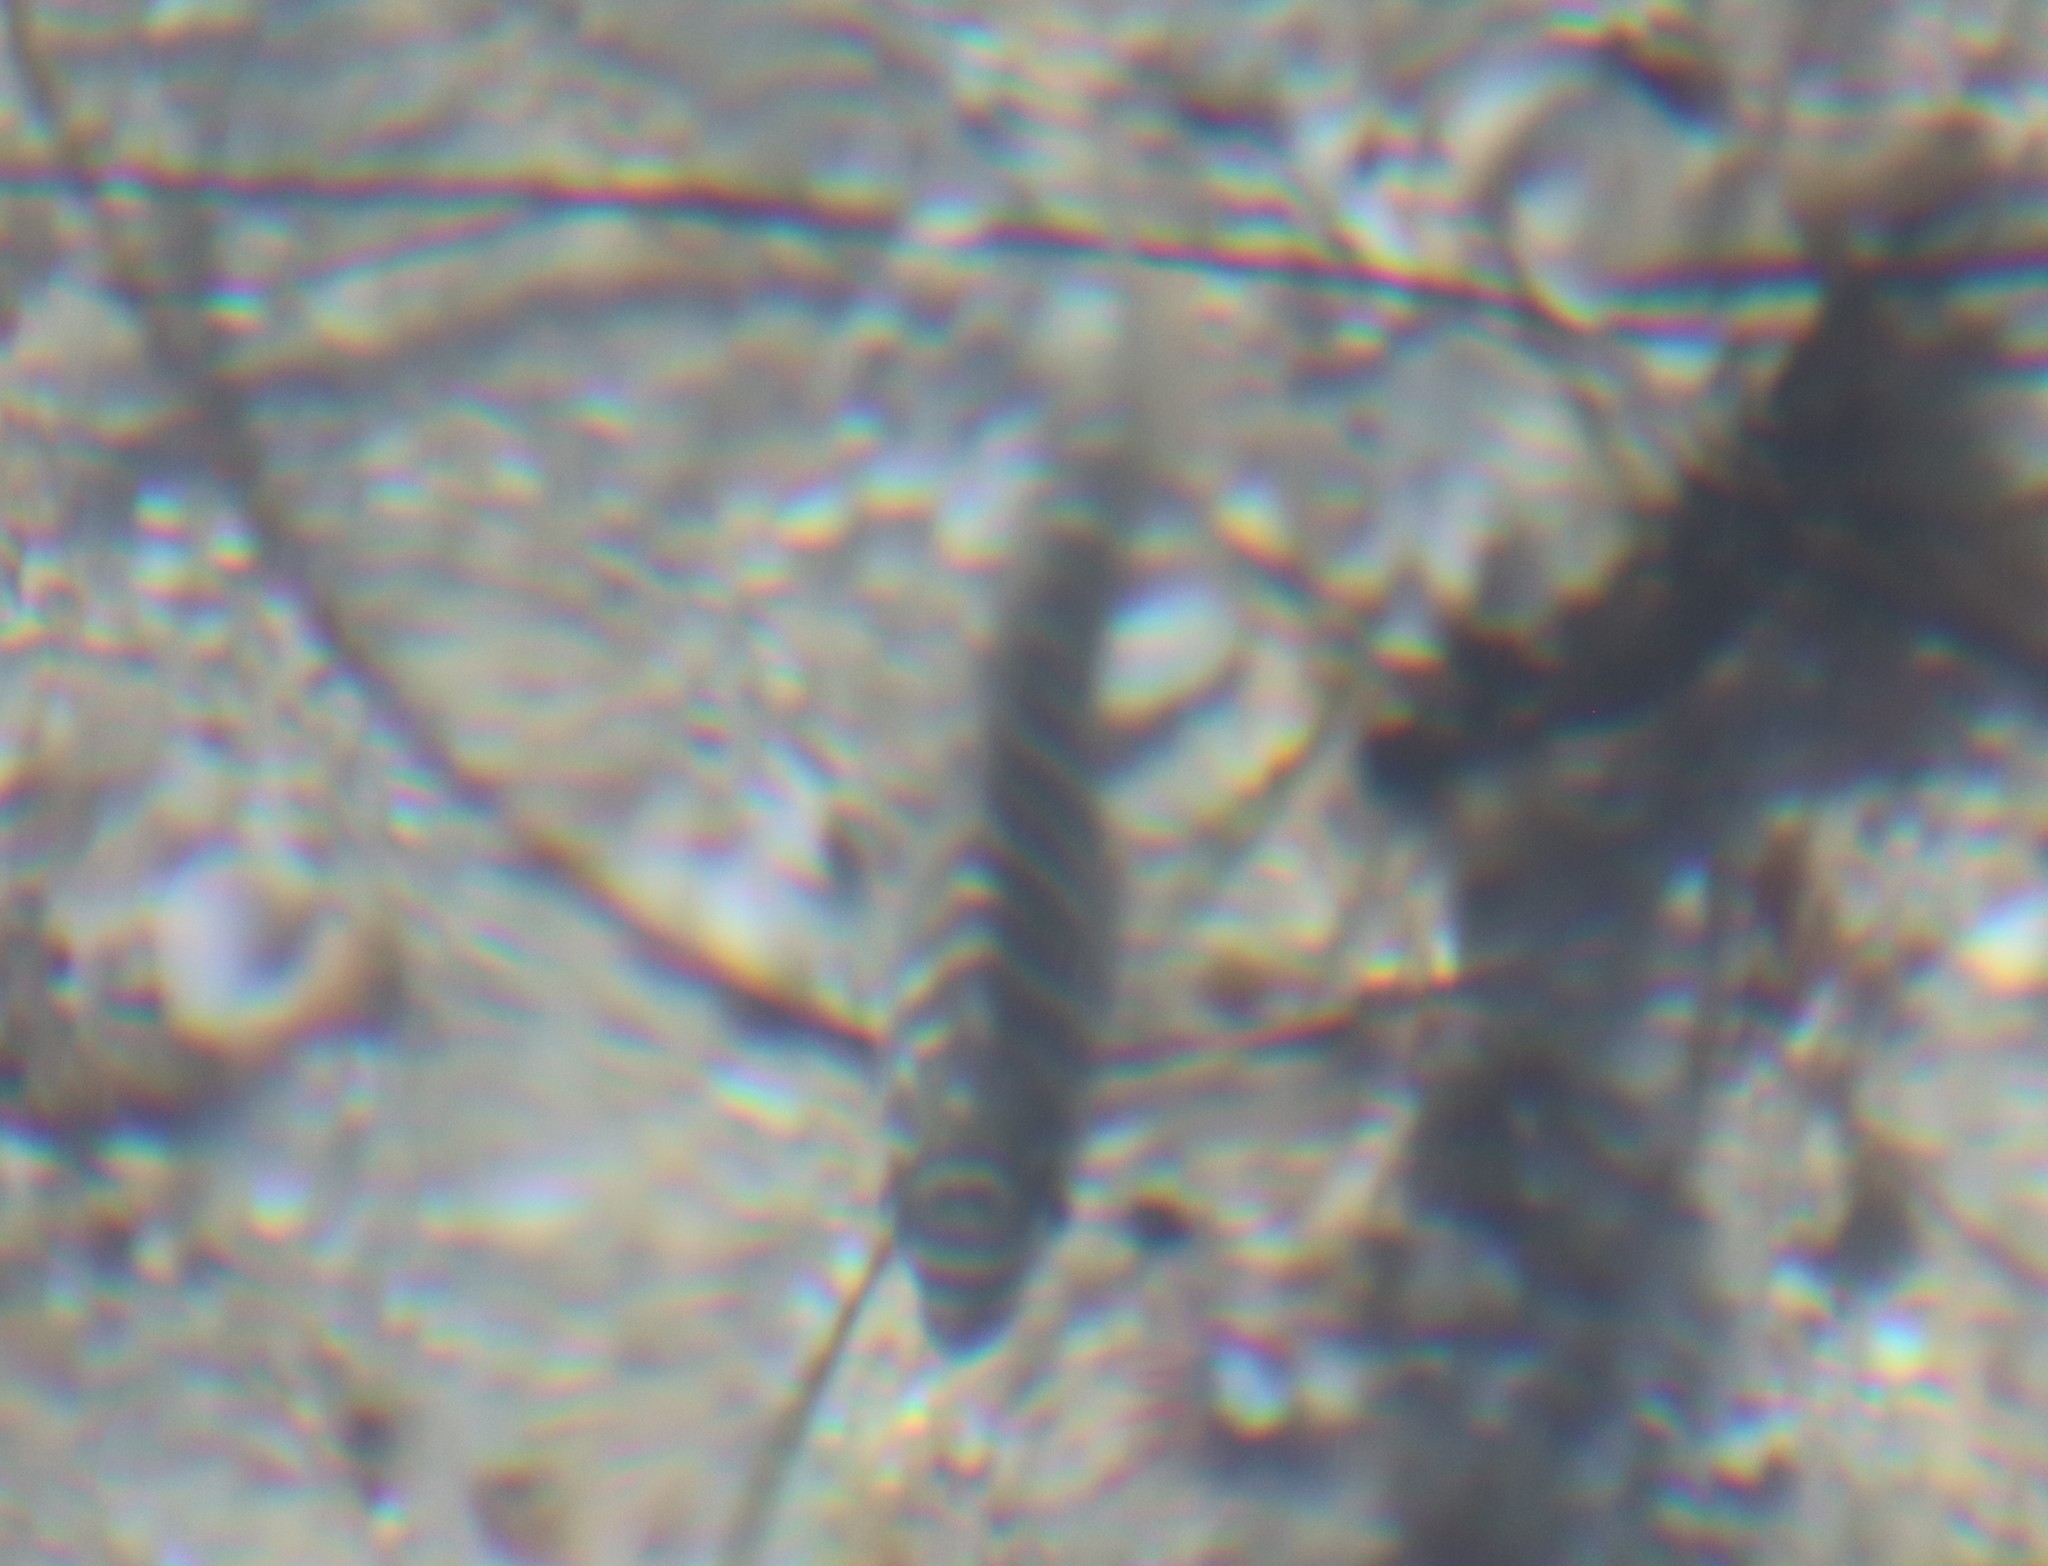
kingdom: Animalia
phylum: Chordata
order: Perciformes
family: Kyphosidae
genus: Kyphosus
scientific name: Kyphosus azureus
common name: Perch
